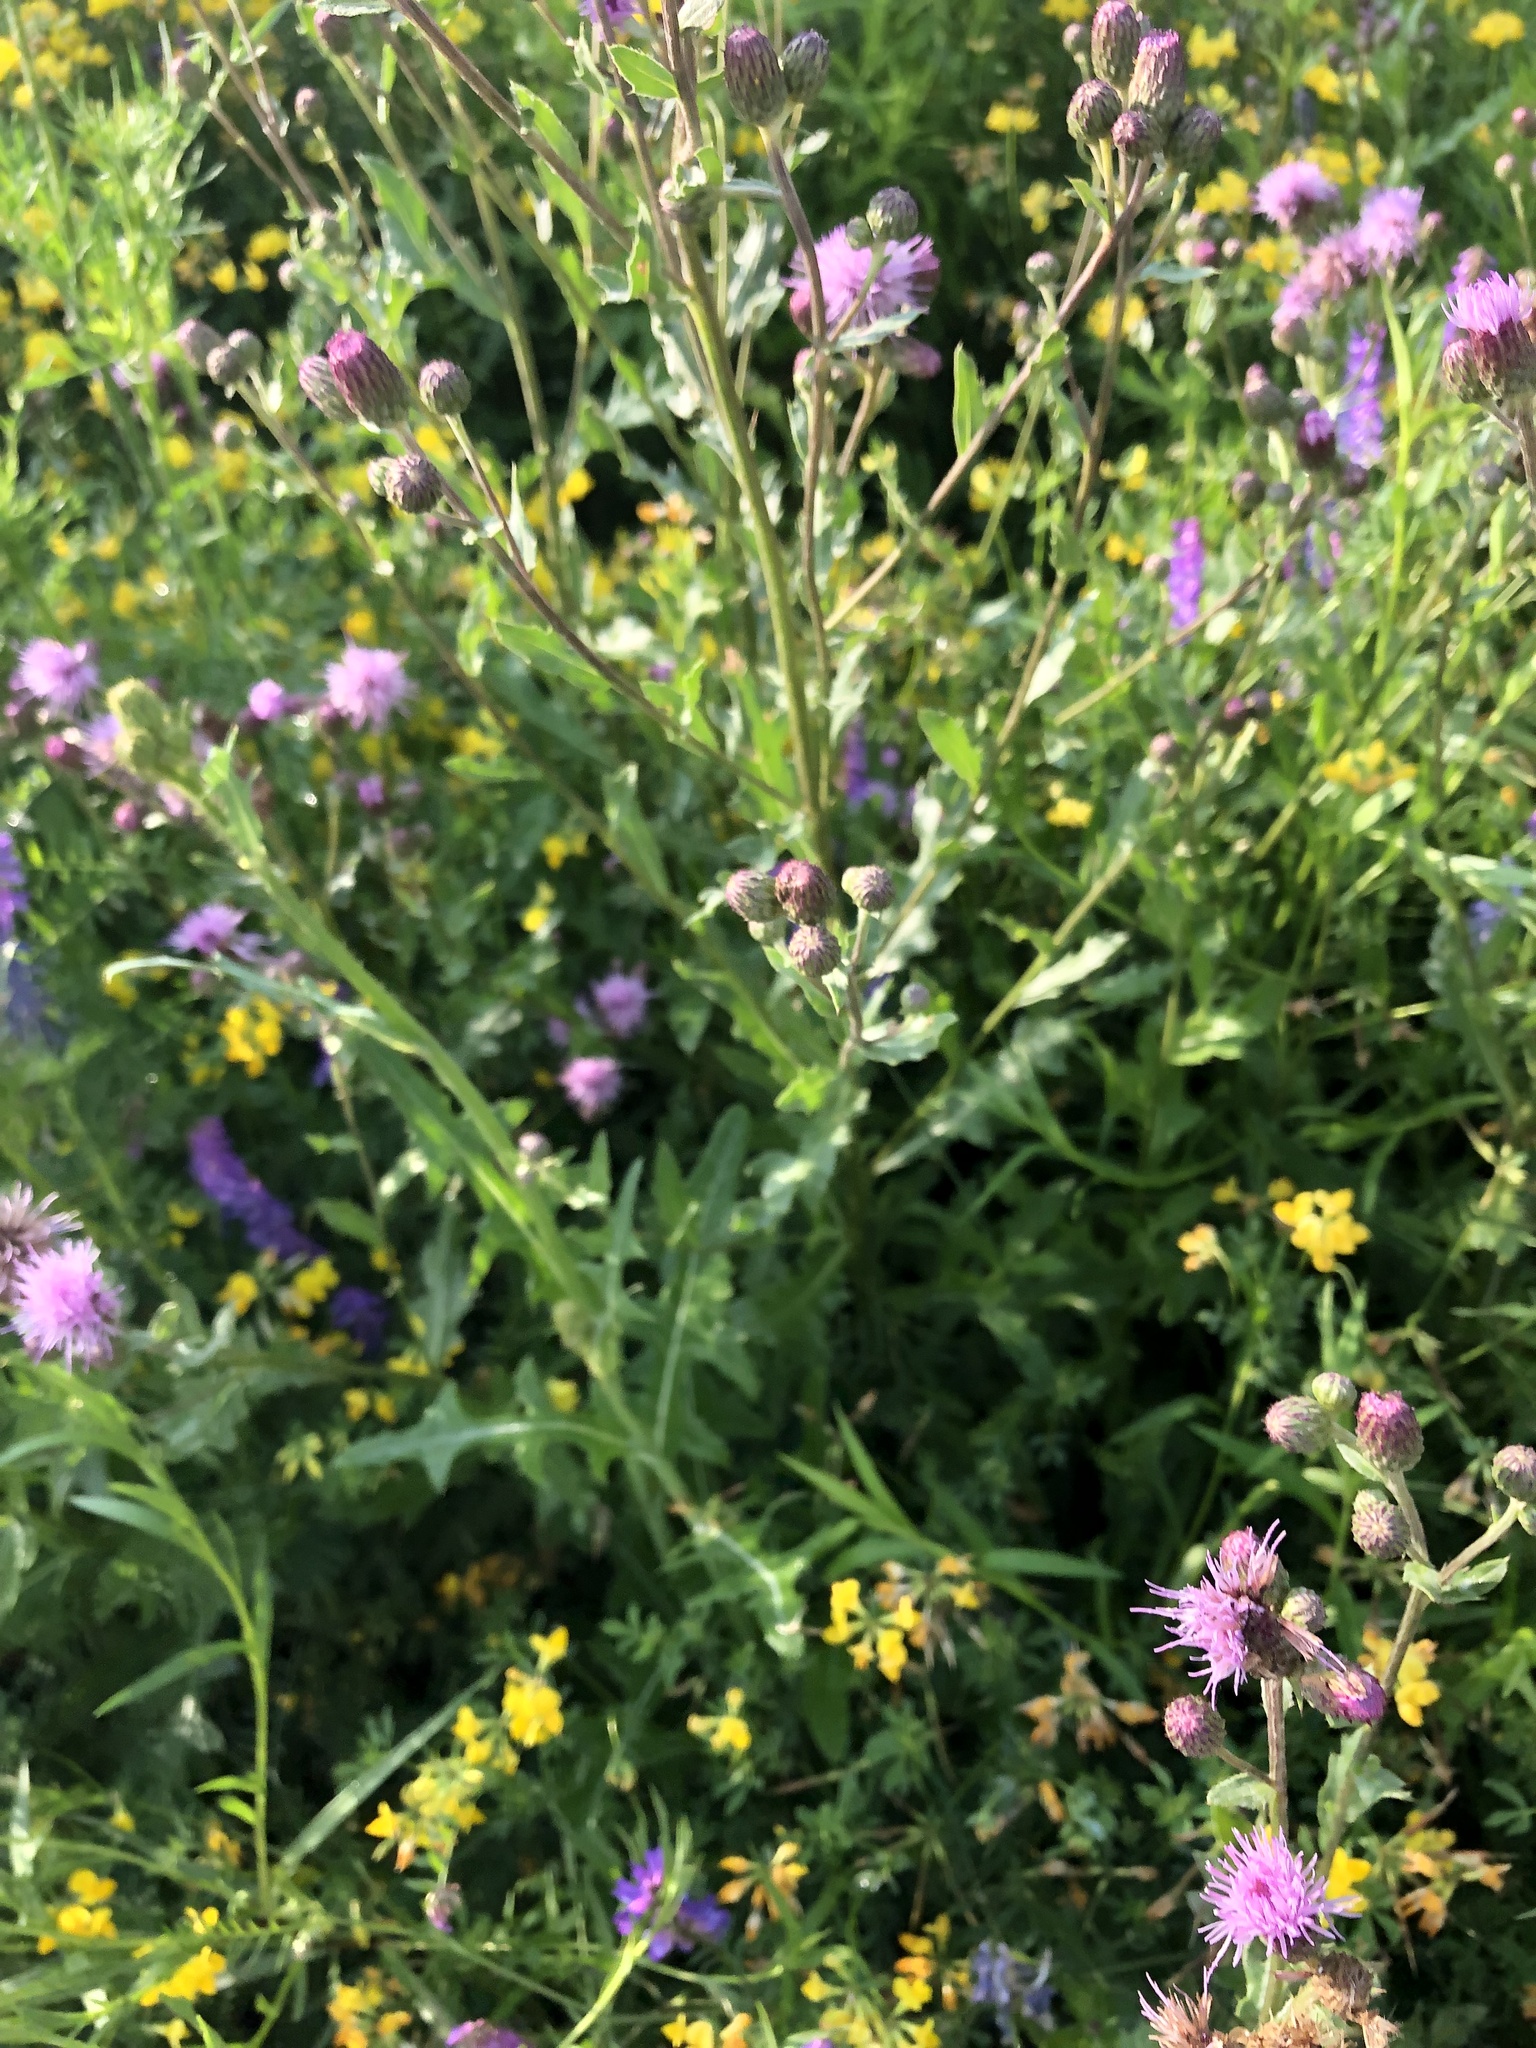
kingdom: Plantae
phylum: Tracheophyta
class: Magnoliopsida
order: Asterales
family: Asteraceae
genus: Cirsium
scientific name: Cirsium arvense
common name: Creeping thistle
